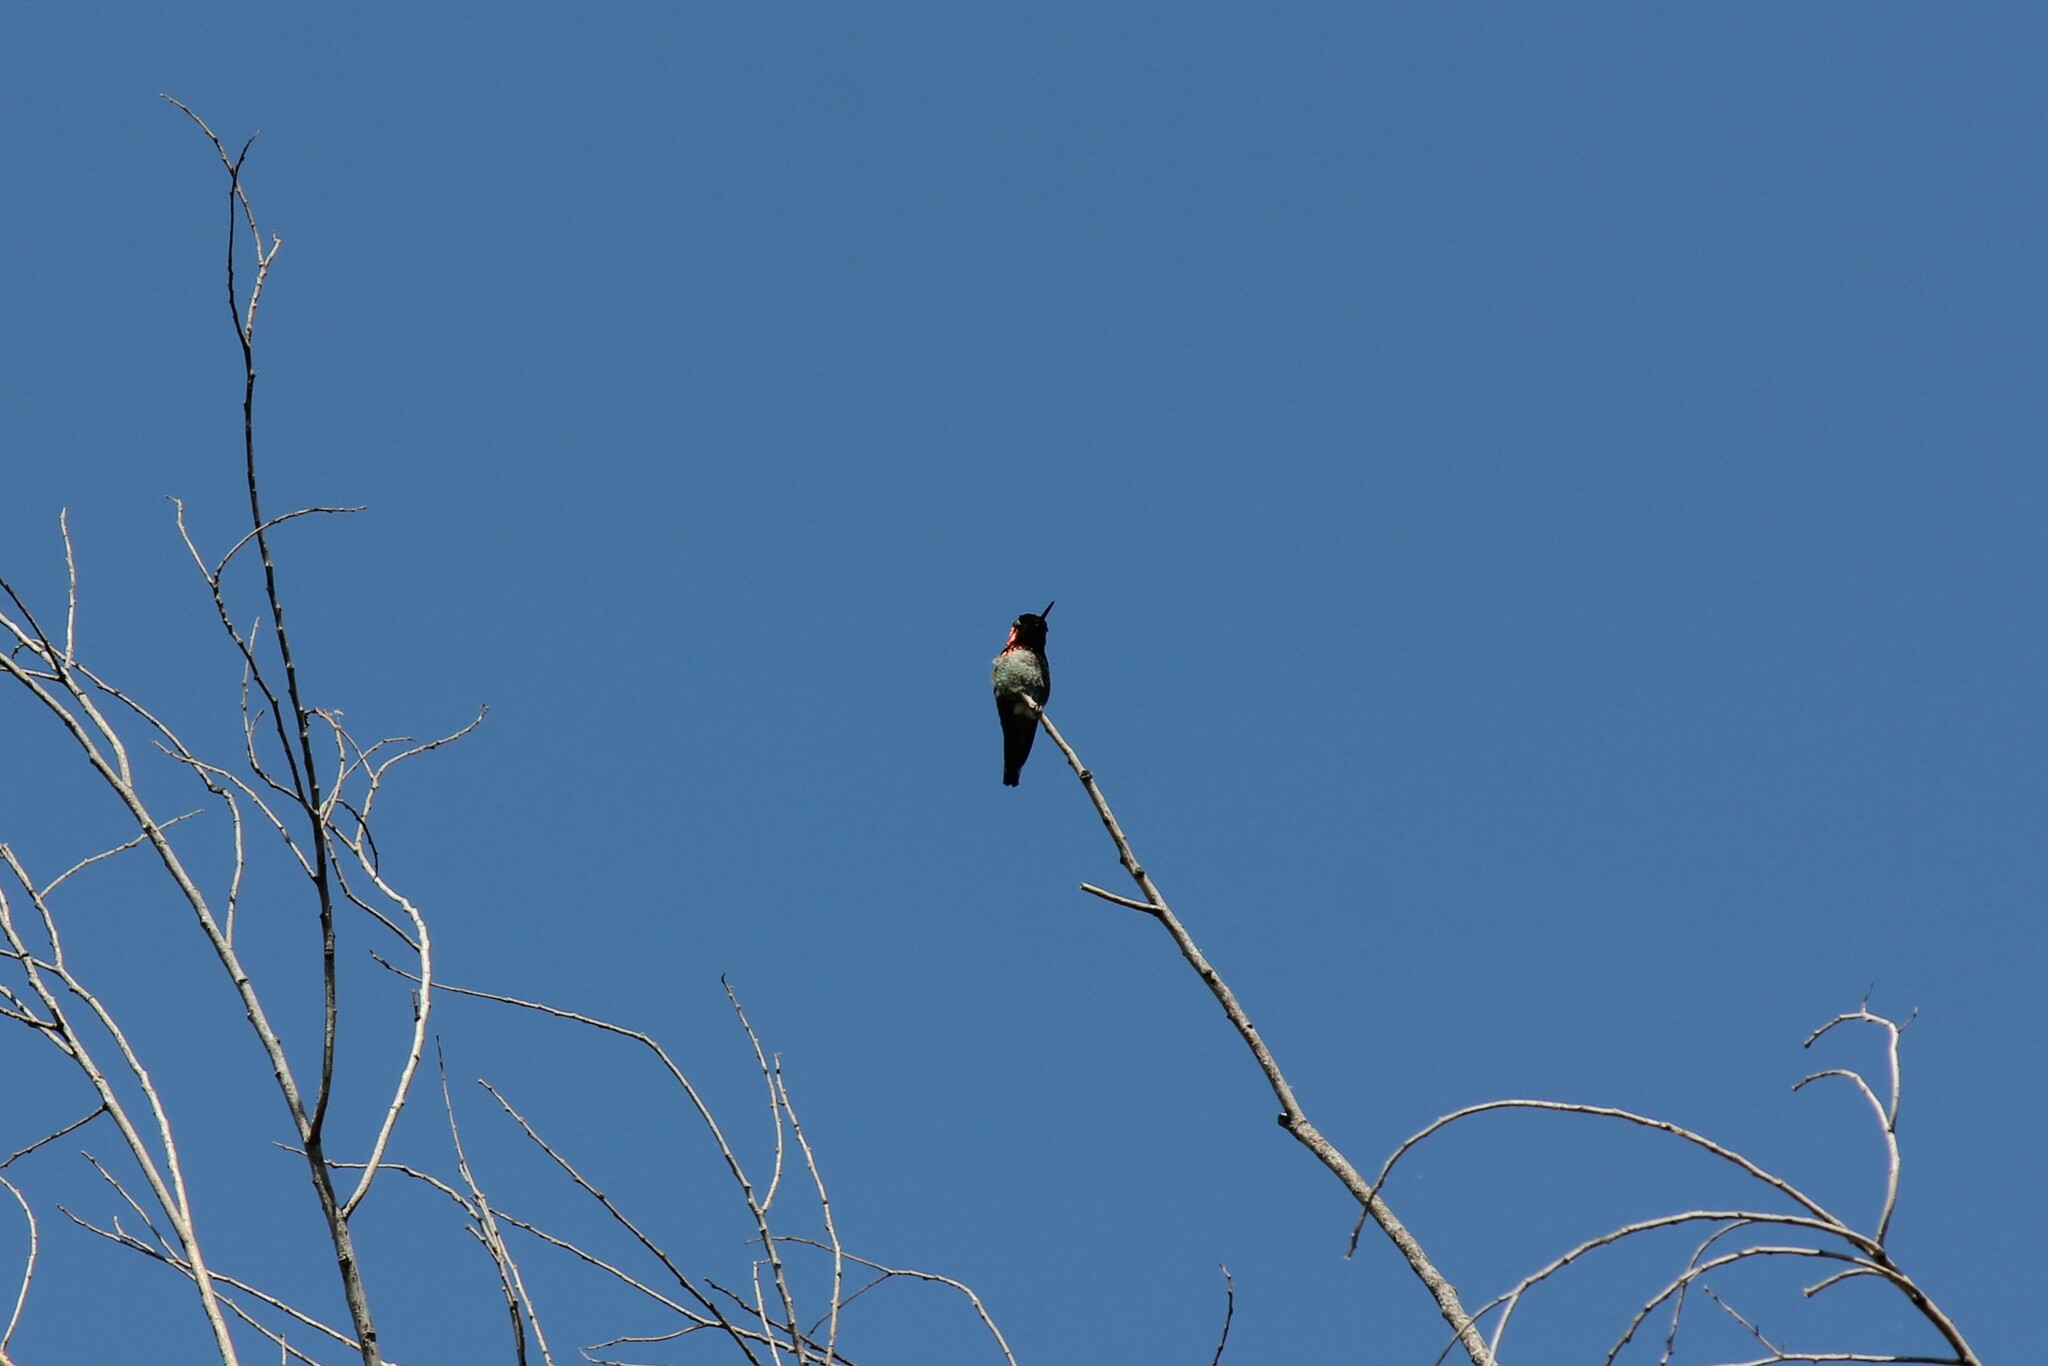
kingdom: Animalia
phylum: Chordata
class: Aves
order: Apodiformes
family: Trochilidae
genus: Calypte
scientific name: Calypte anna
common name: Anna's hummingbird
